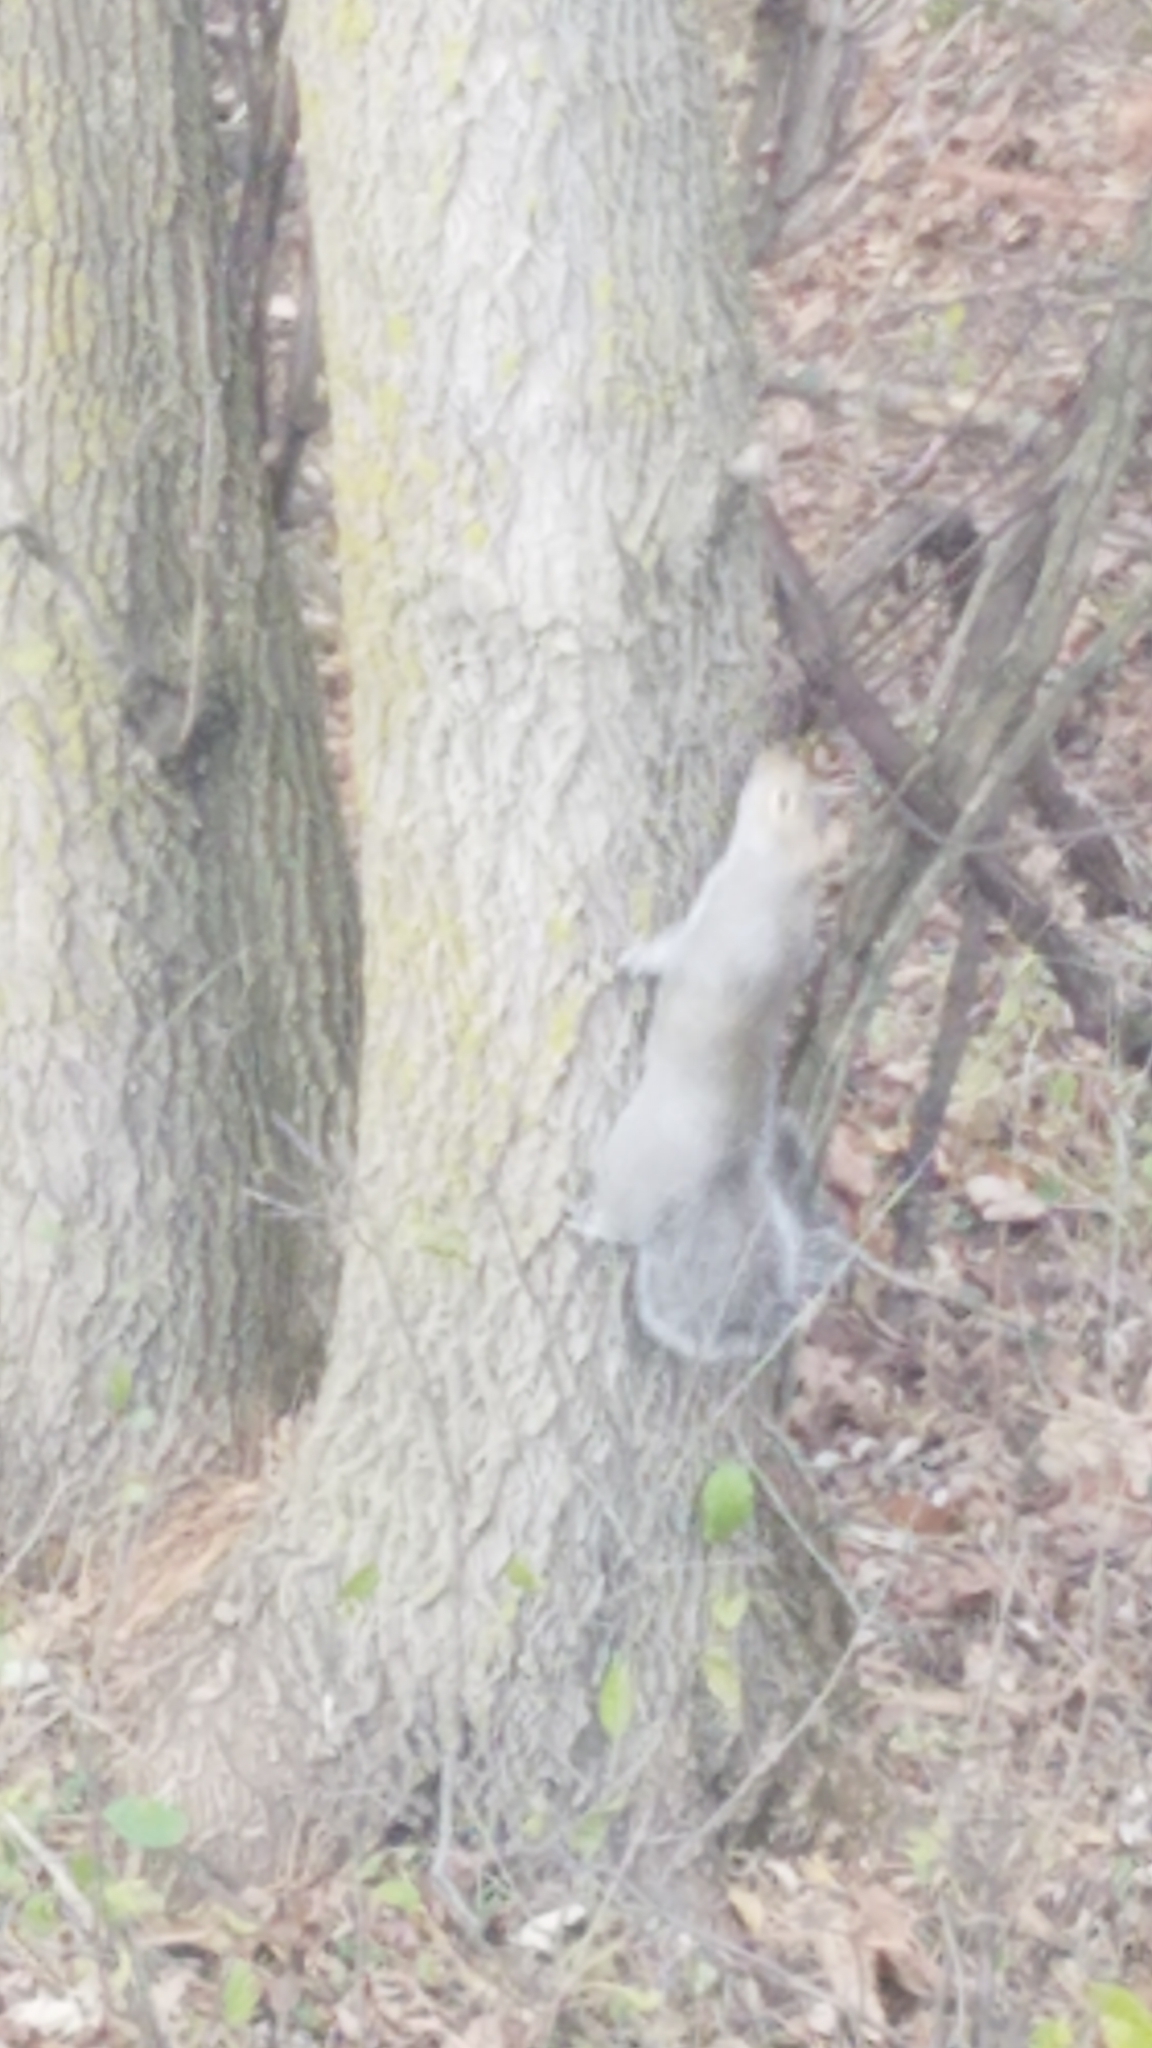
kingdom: Animalia
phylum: Chordata
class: Mammalia
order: Rodentia
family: Sciuridae
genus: Sciurus
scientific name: Sciurus carolinensis
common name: Eastern gray squirrel
